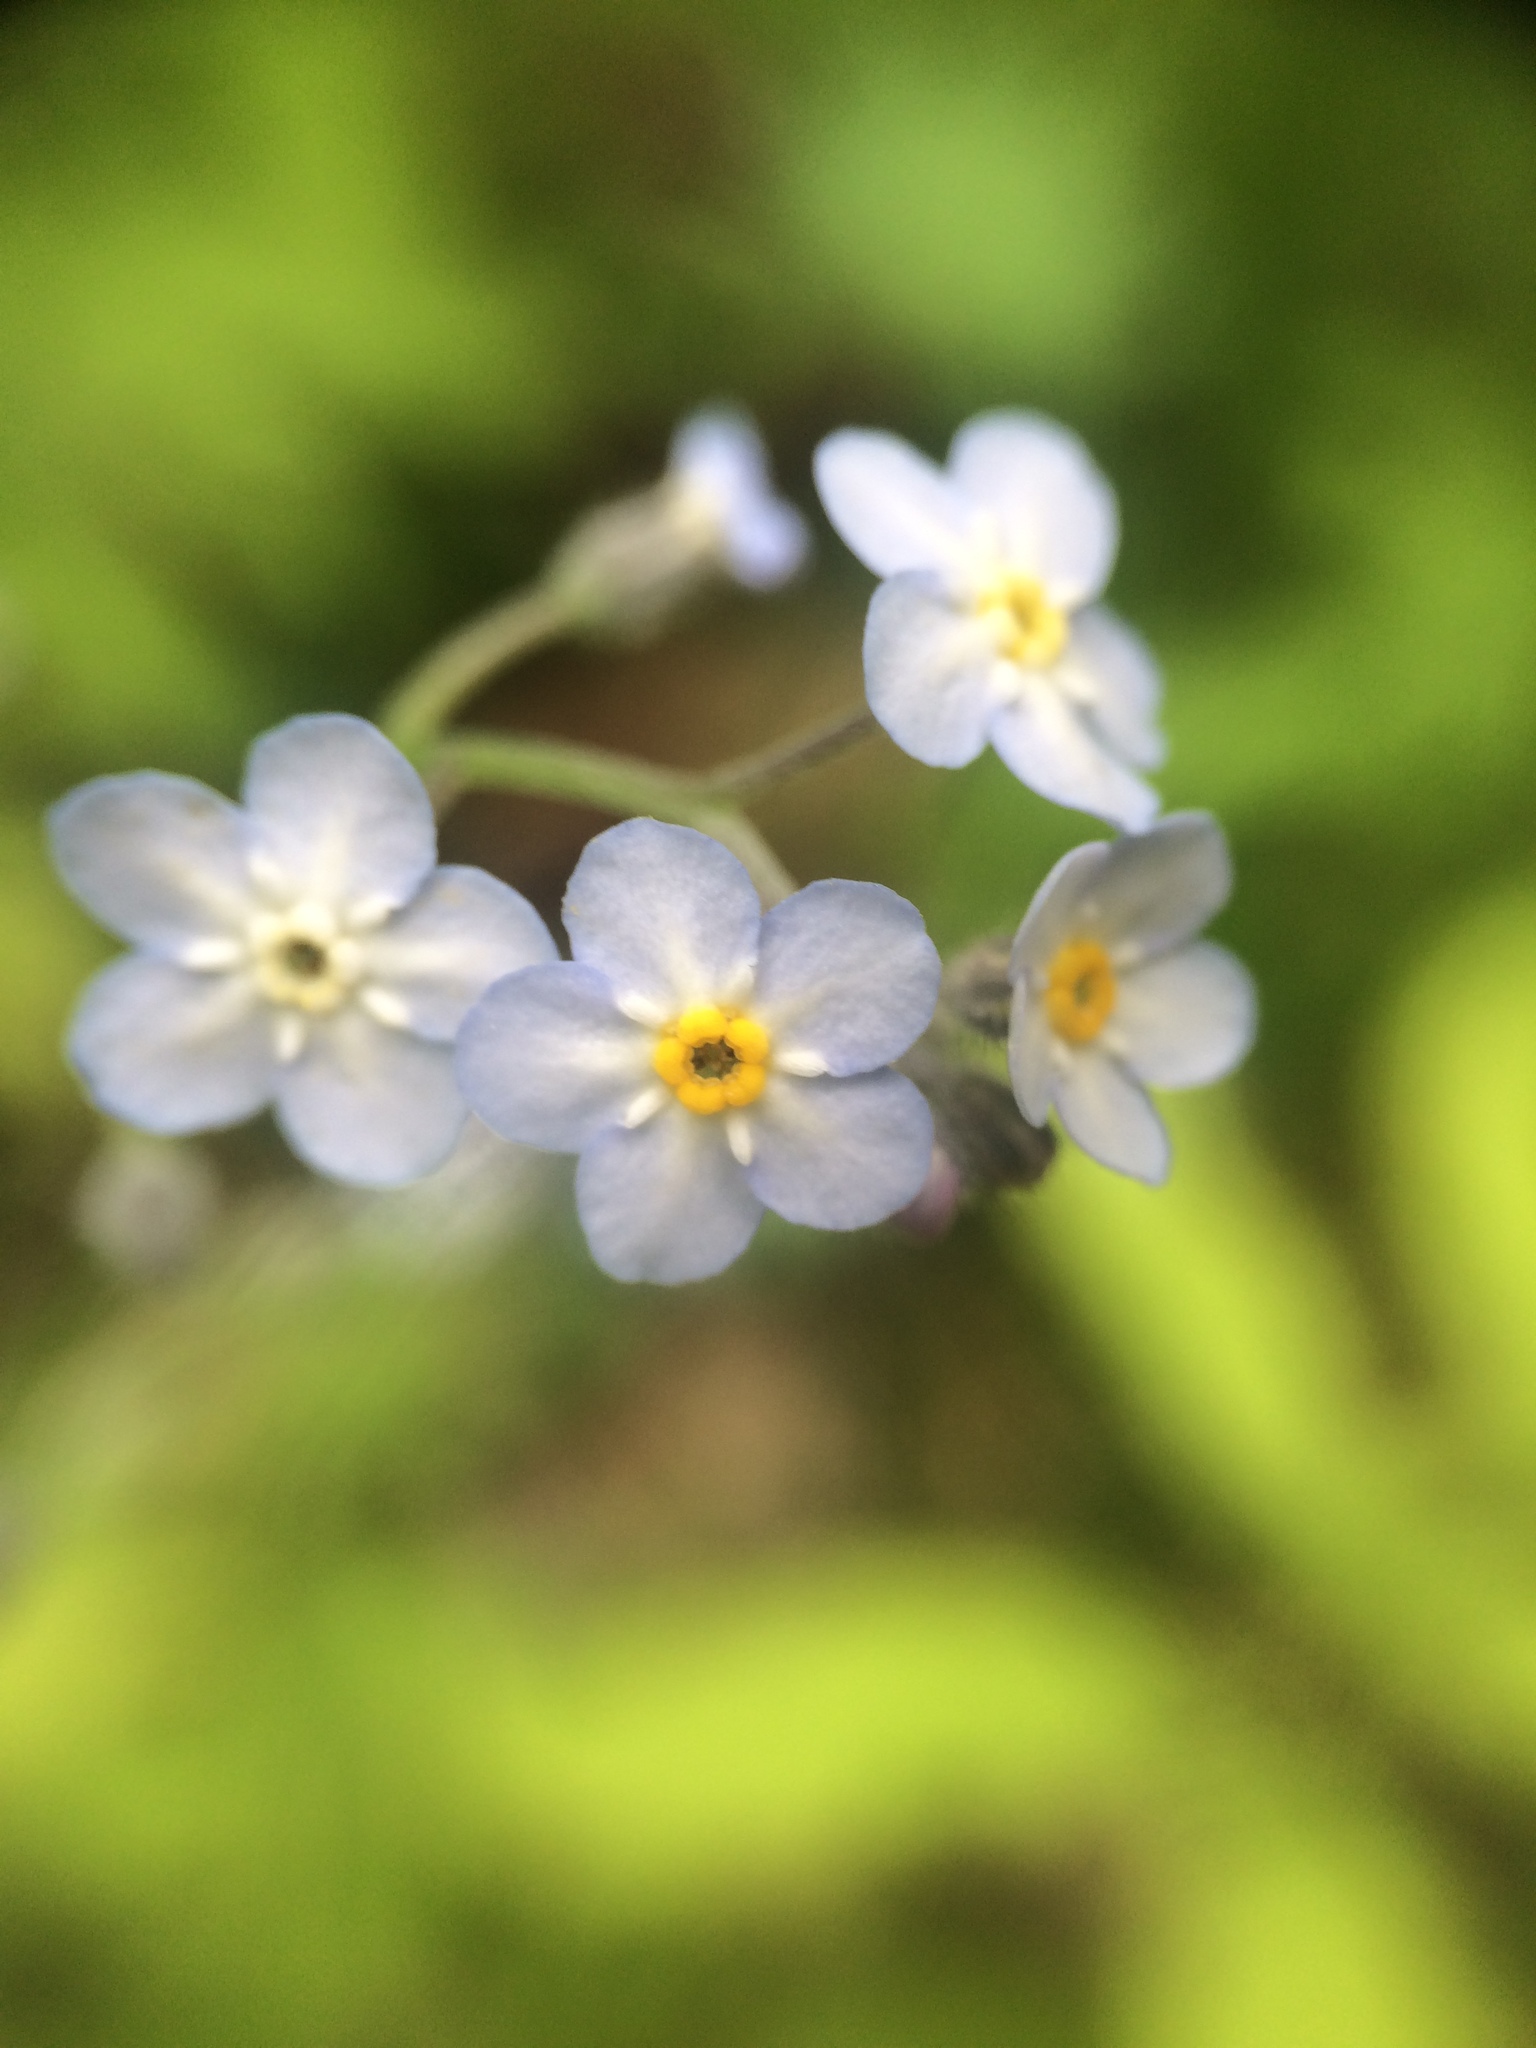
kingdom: Plantae
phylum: Tracheophyta
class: Magnoliopsida
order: Boraginales
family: Boraginaceae
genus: Myosotis
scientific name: Myosotis sylvatica
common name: Wood forget-me-not
